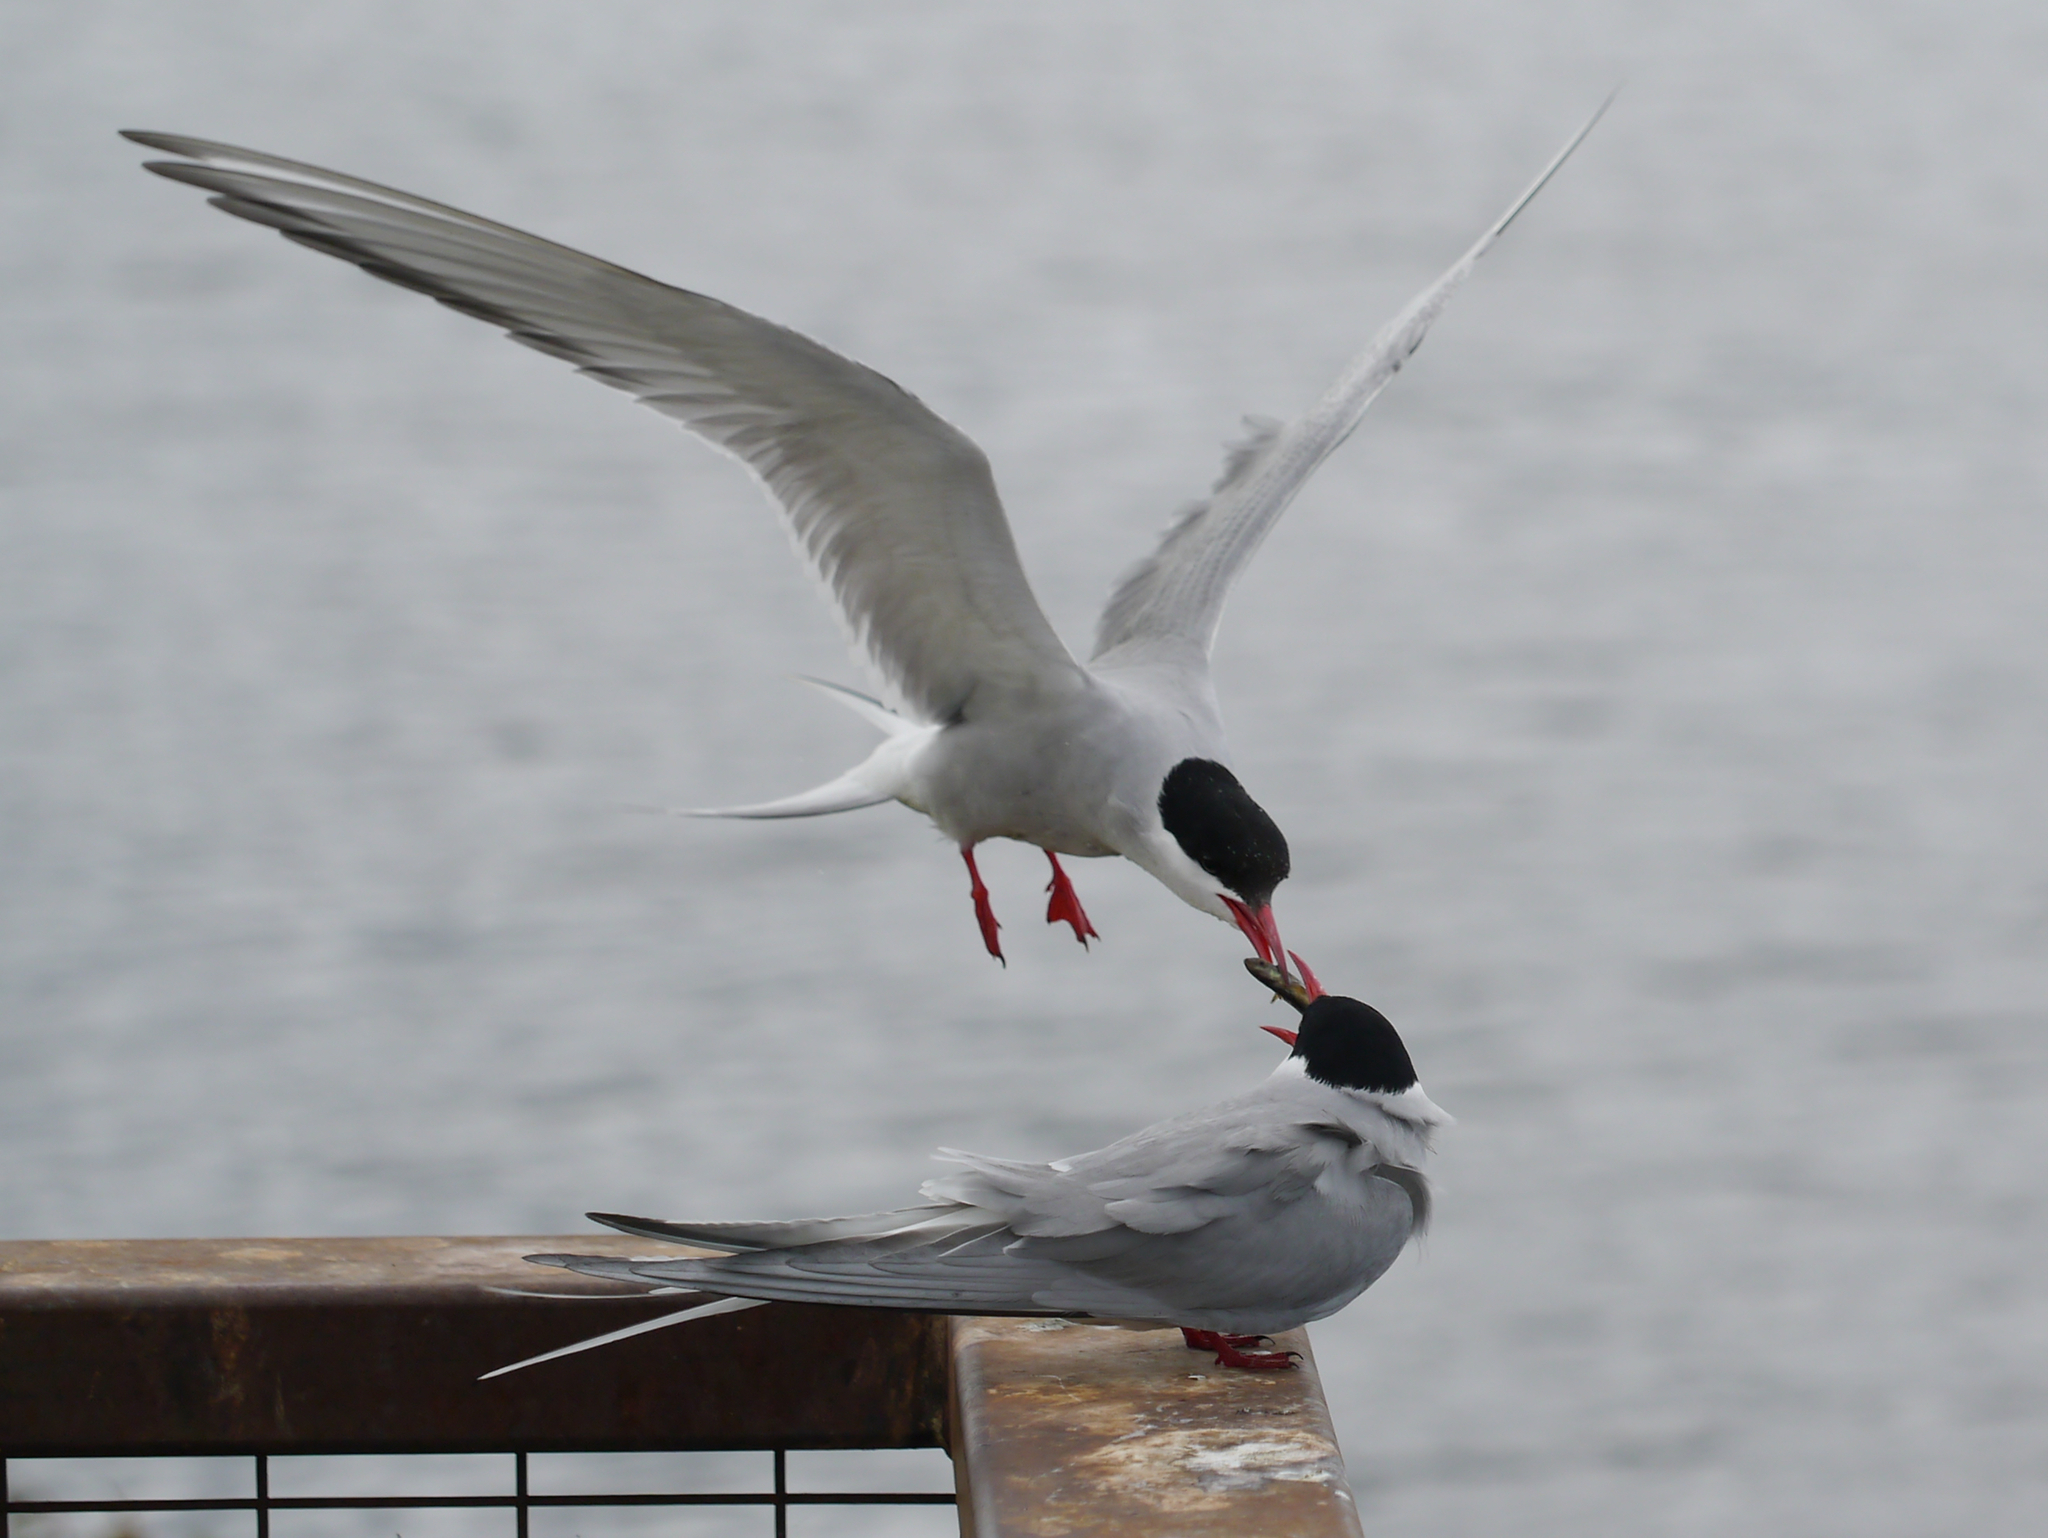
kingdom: Animalia
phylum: Chordata
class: Aves
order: Charadriiformes
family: Laridae
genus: Sterna
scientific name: Sterna paradisaea
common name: Arctic tern
